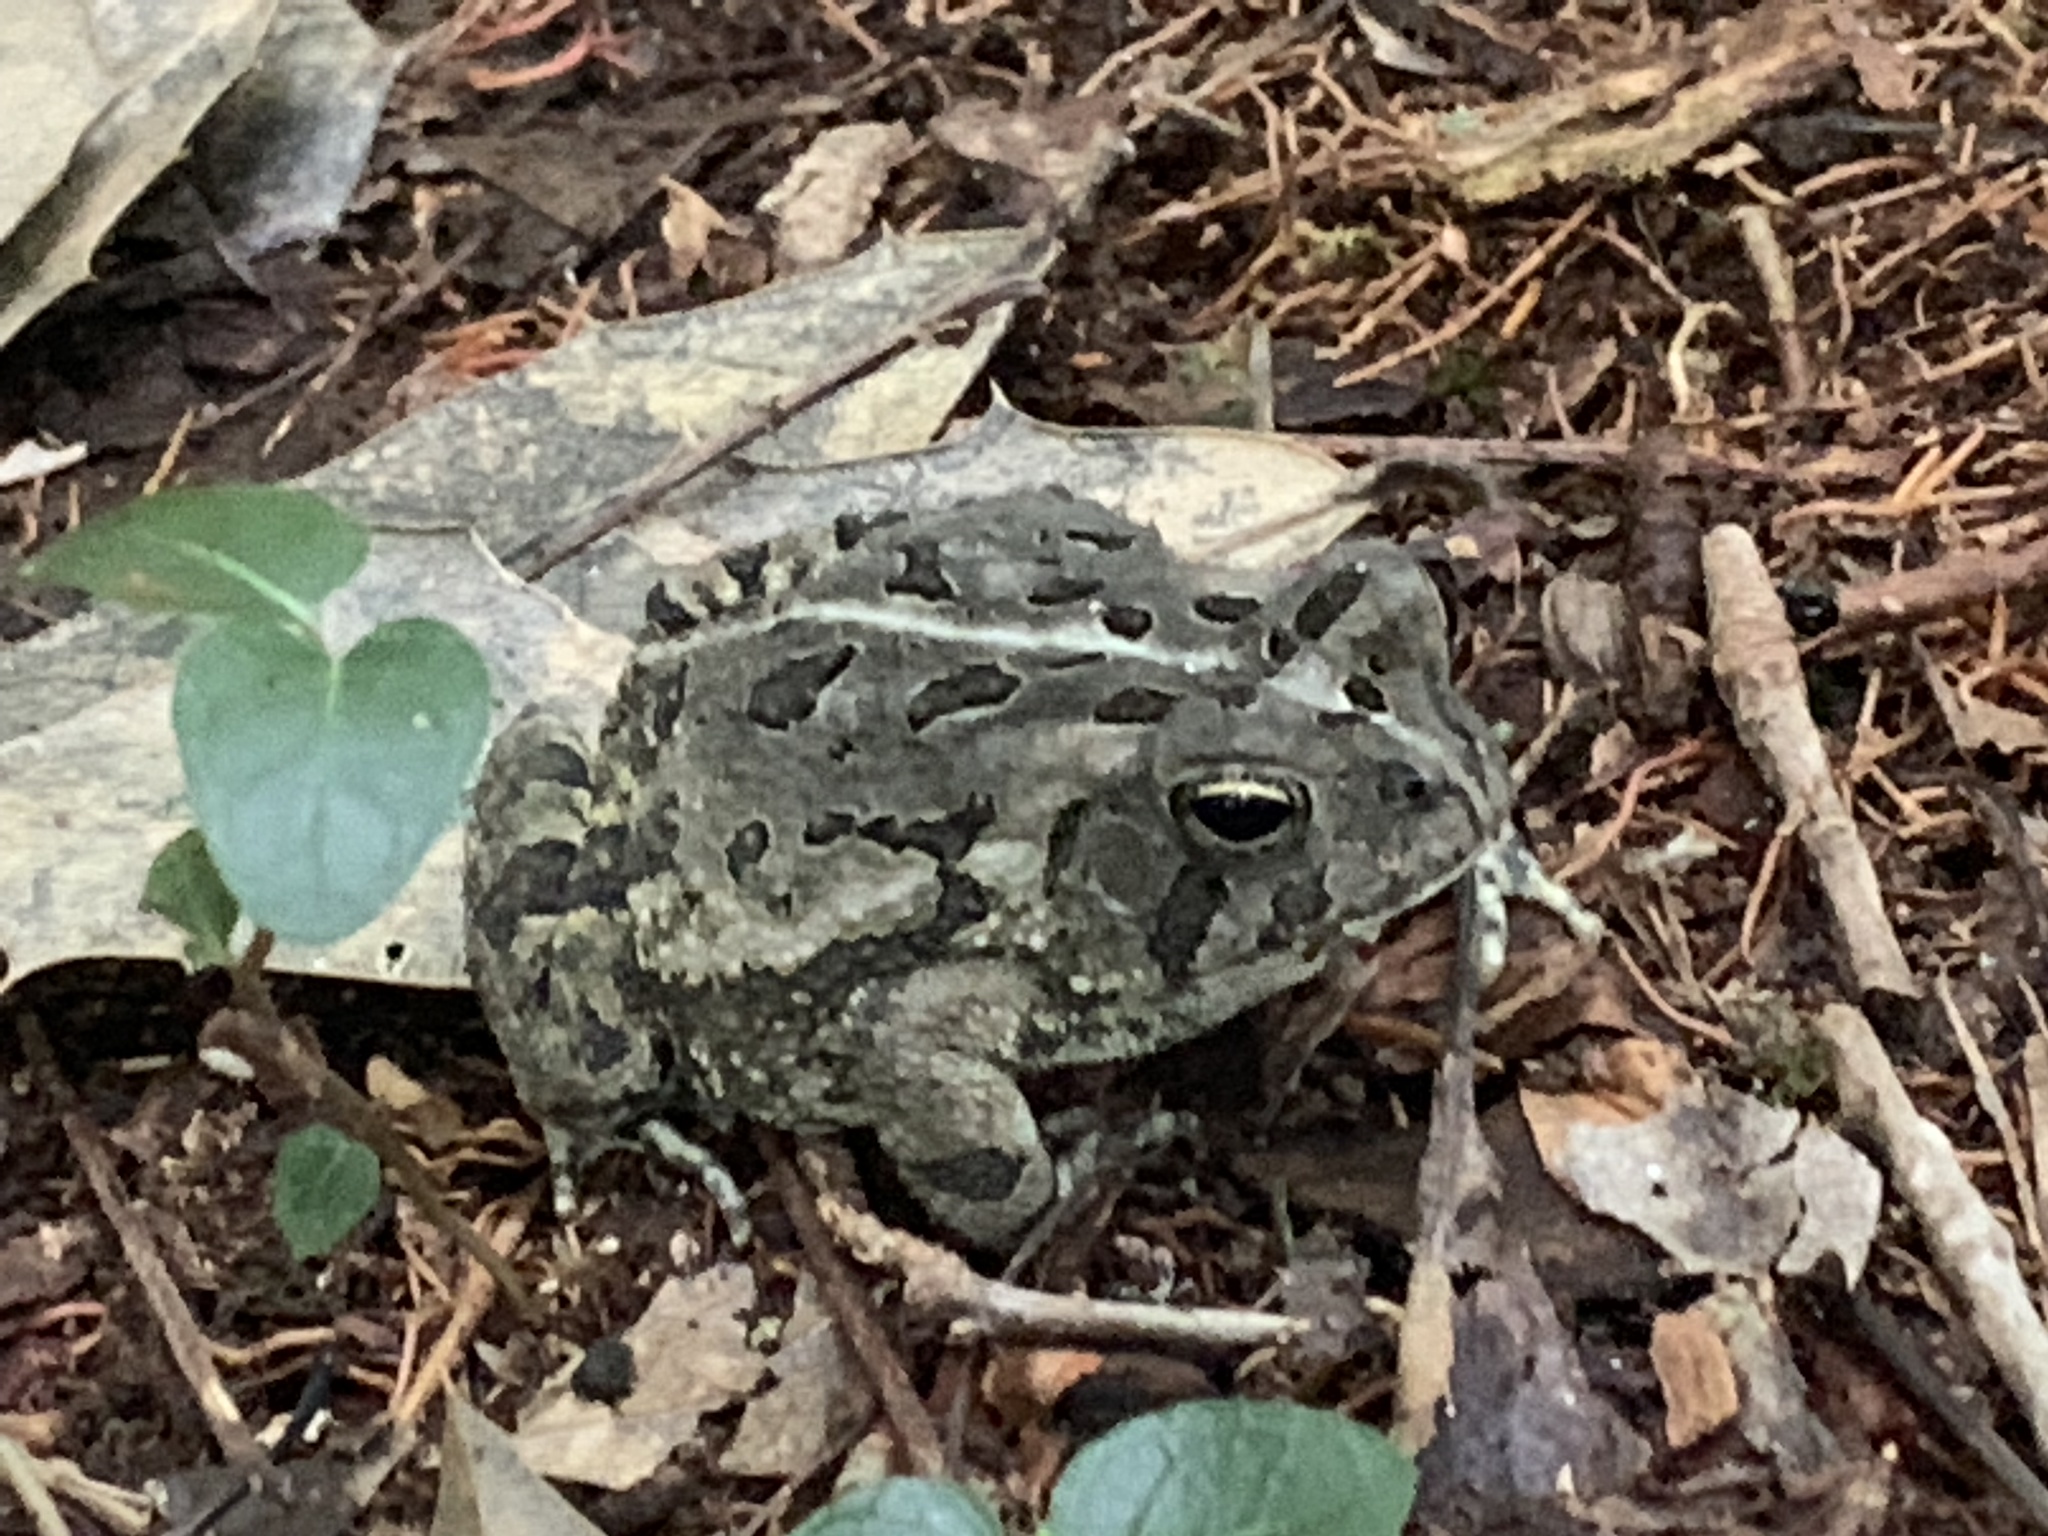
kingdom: Animalia
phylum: Chordata
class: Amphibia
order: Anura
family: Bufonidae
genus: Anaxyrus
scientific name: Anaxyrus fowleri
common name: Fowler's toad
